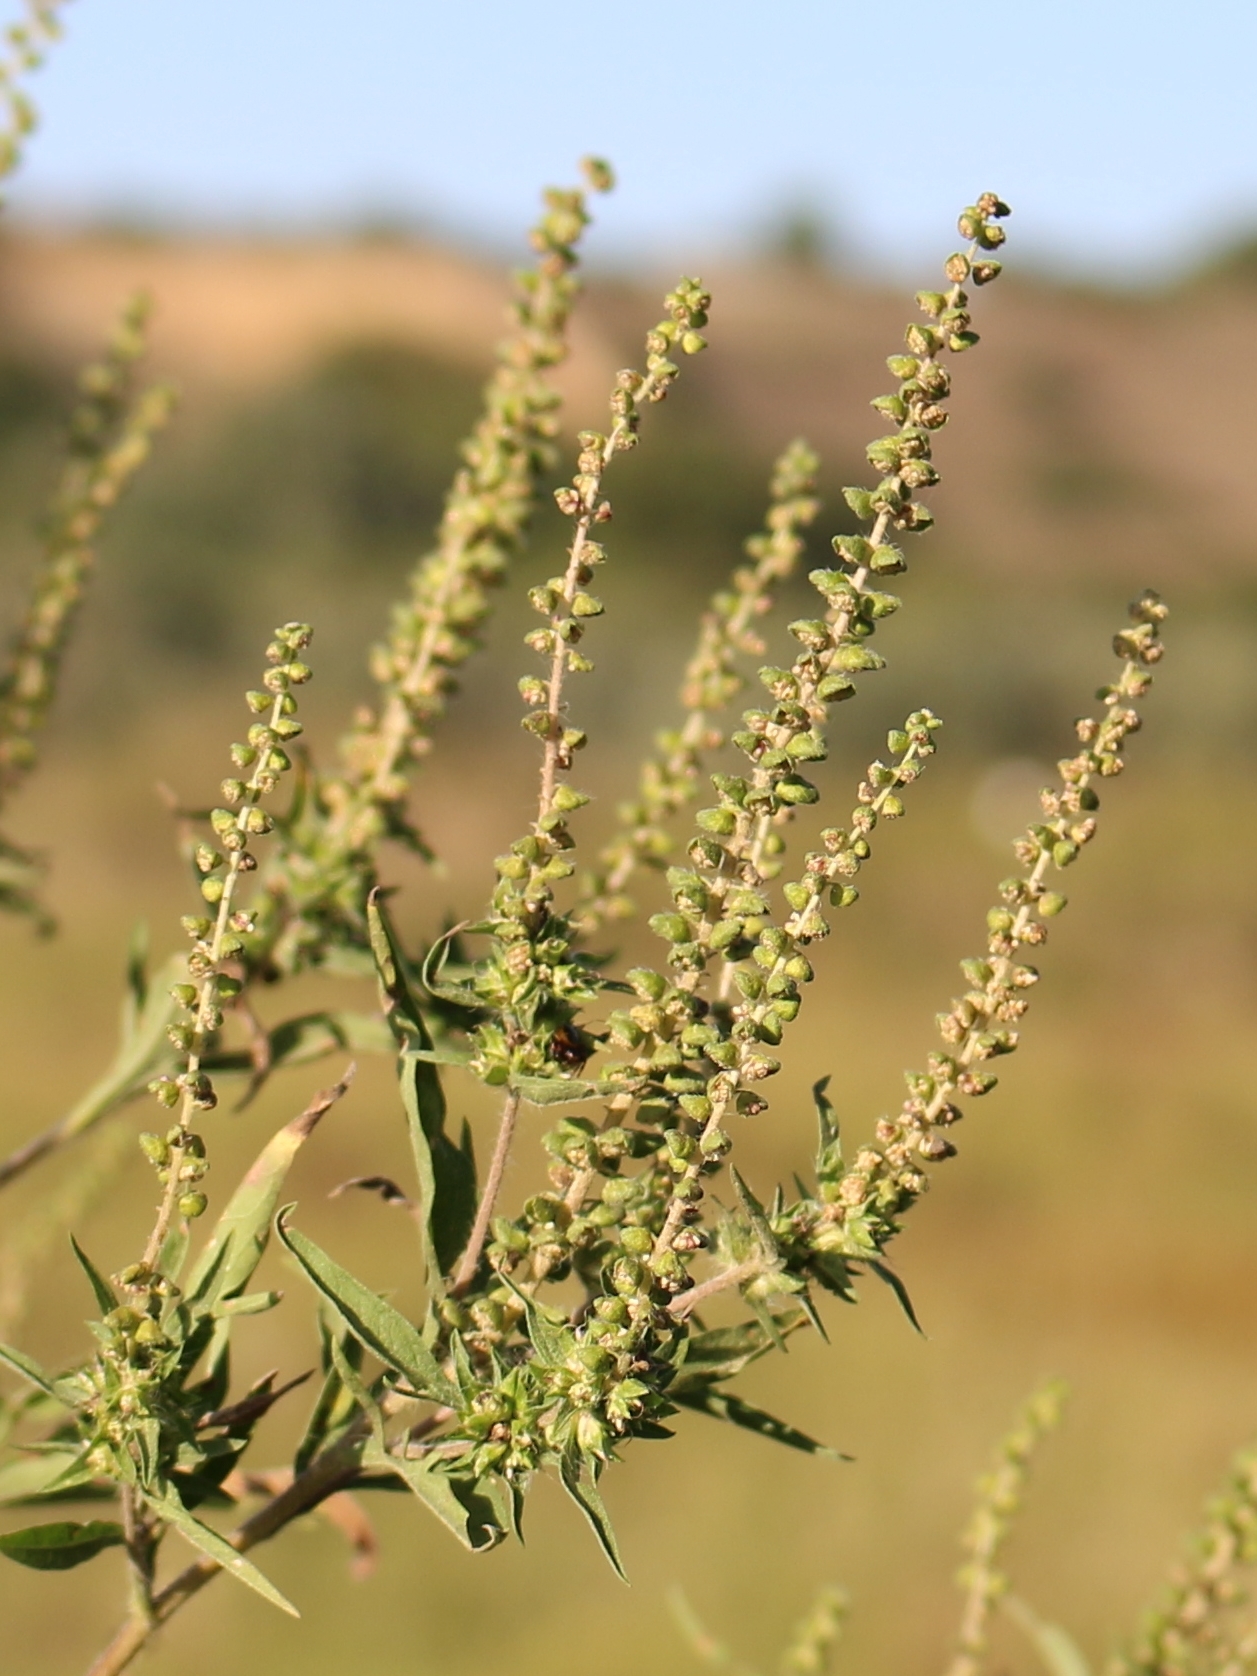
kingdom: Plantae
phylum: Tracheophyta
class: Magnoliopsida
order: Asterales
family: Asteraceae
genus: Ambrosia
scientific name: Ambrosia artemisiifolia
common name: Annual ragweed
